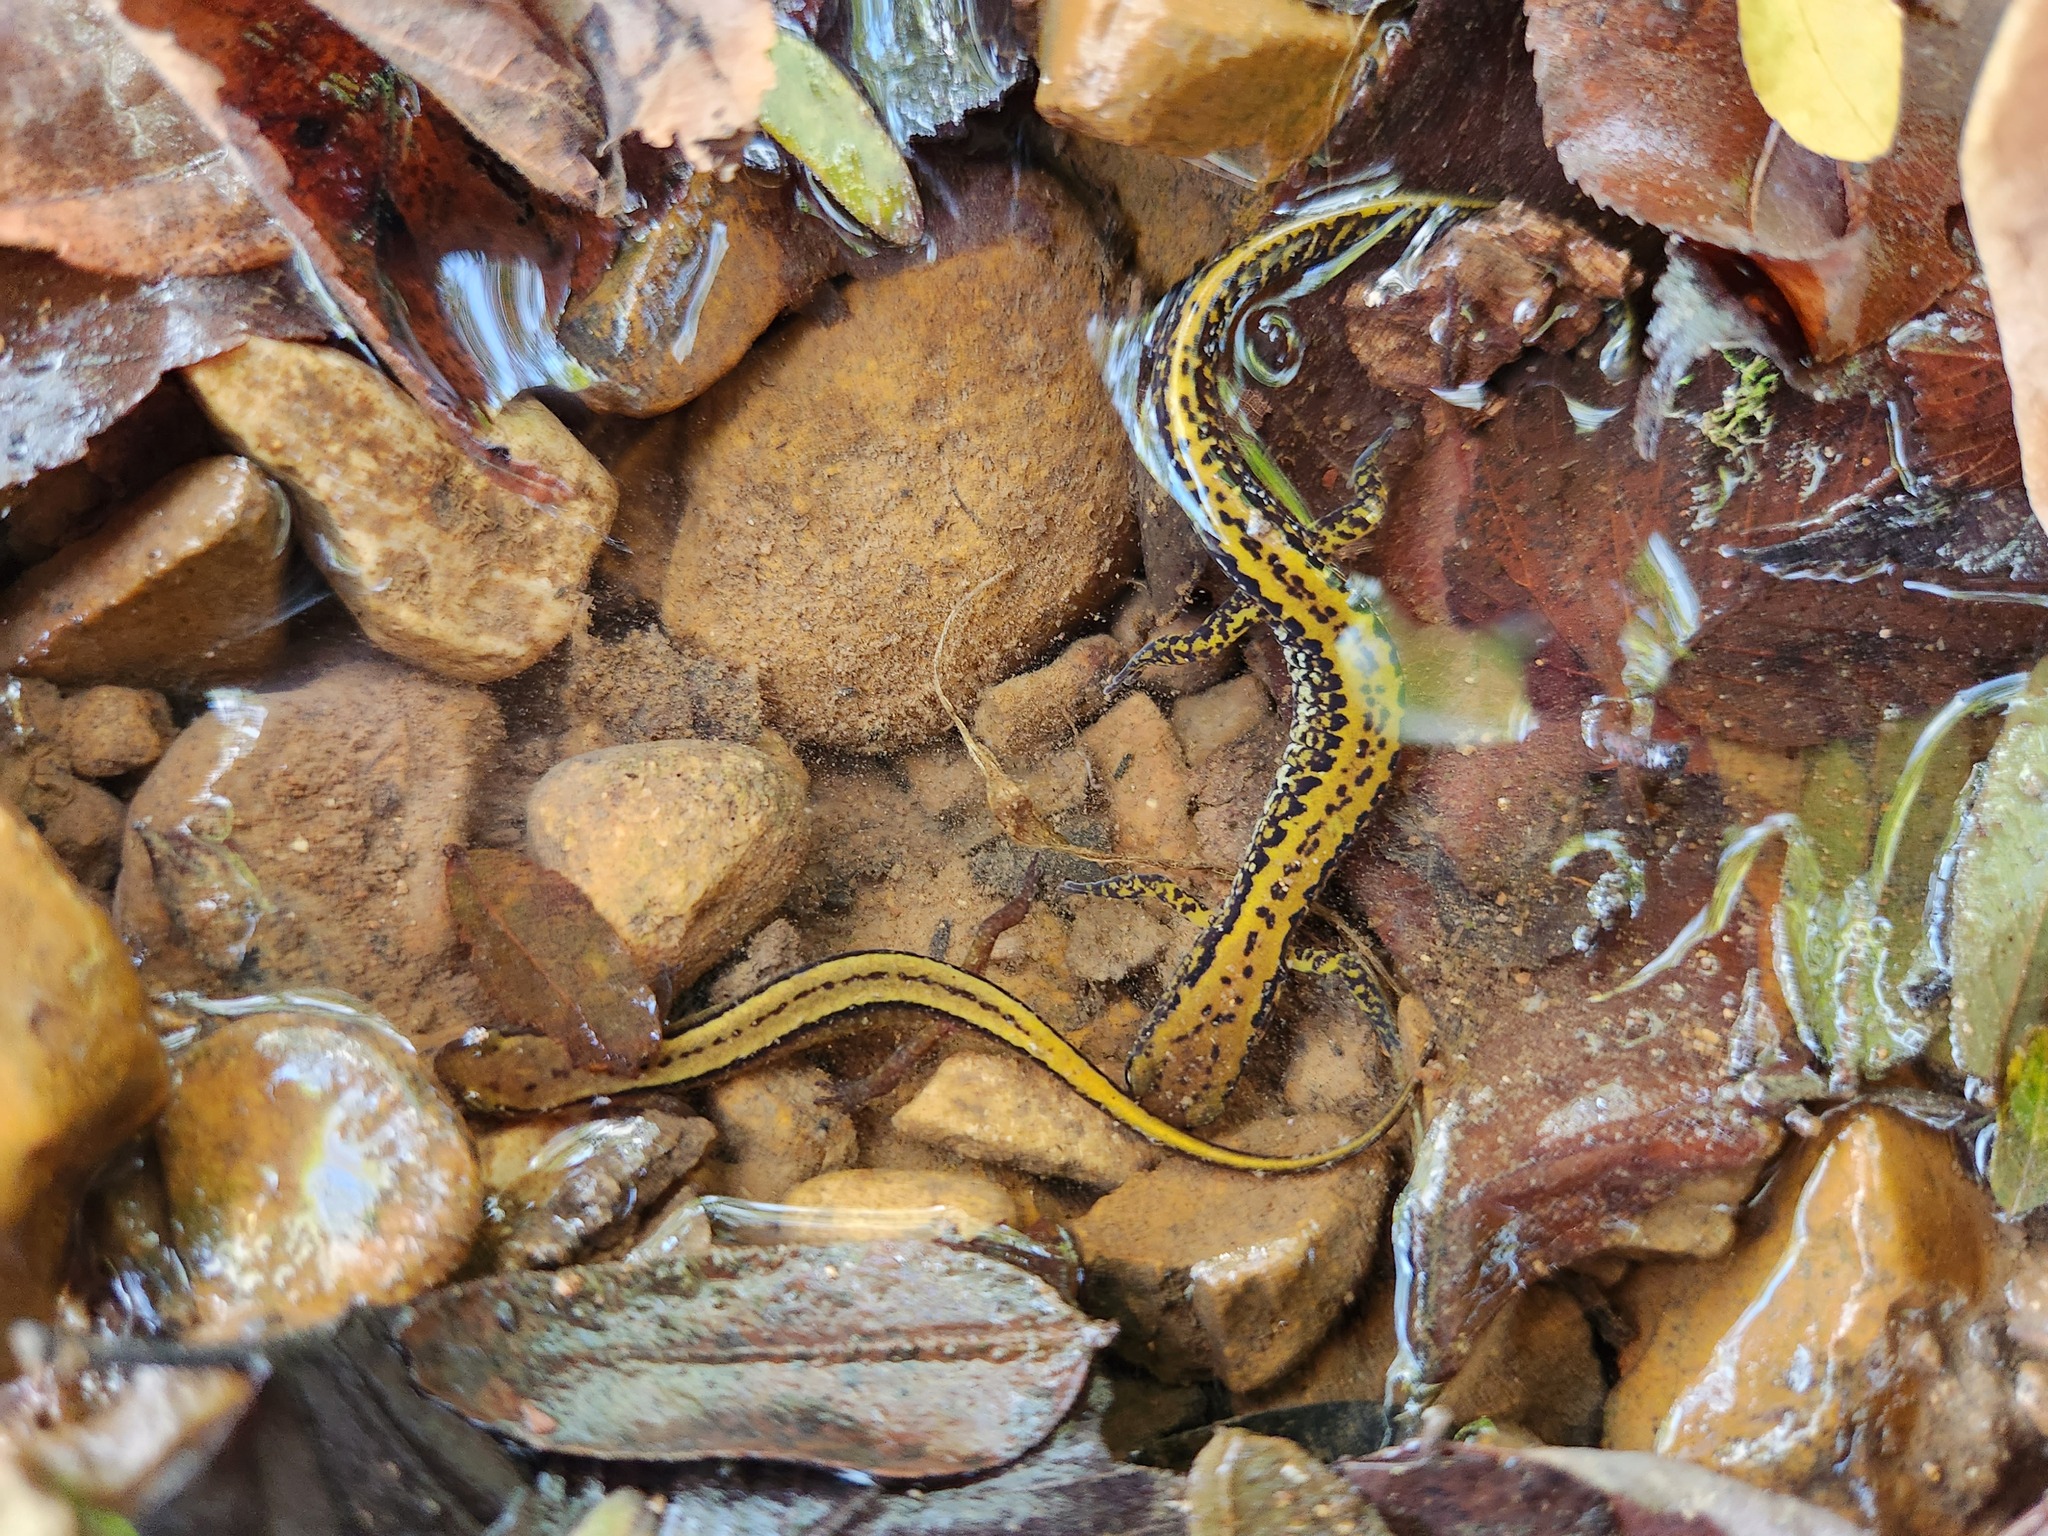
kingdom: Animalia
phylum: Chordata
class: Amphibia
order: Caudata
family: Plethodontidae
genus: Eurycea
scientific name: Eurycea longicauda
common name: Long-tailed salamander
